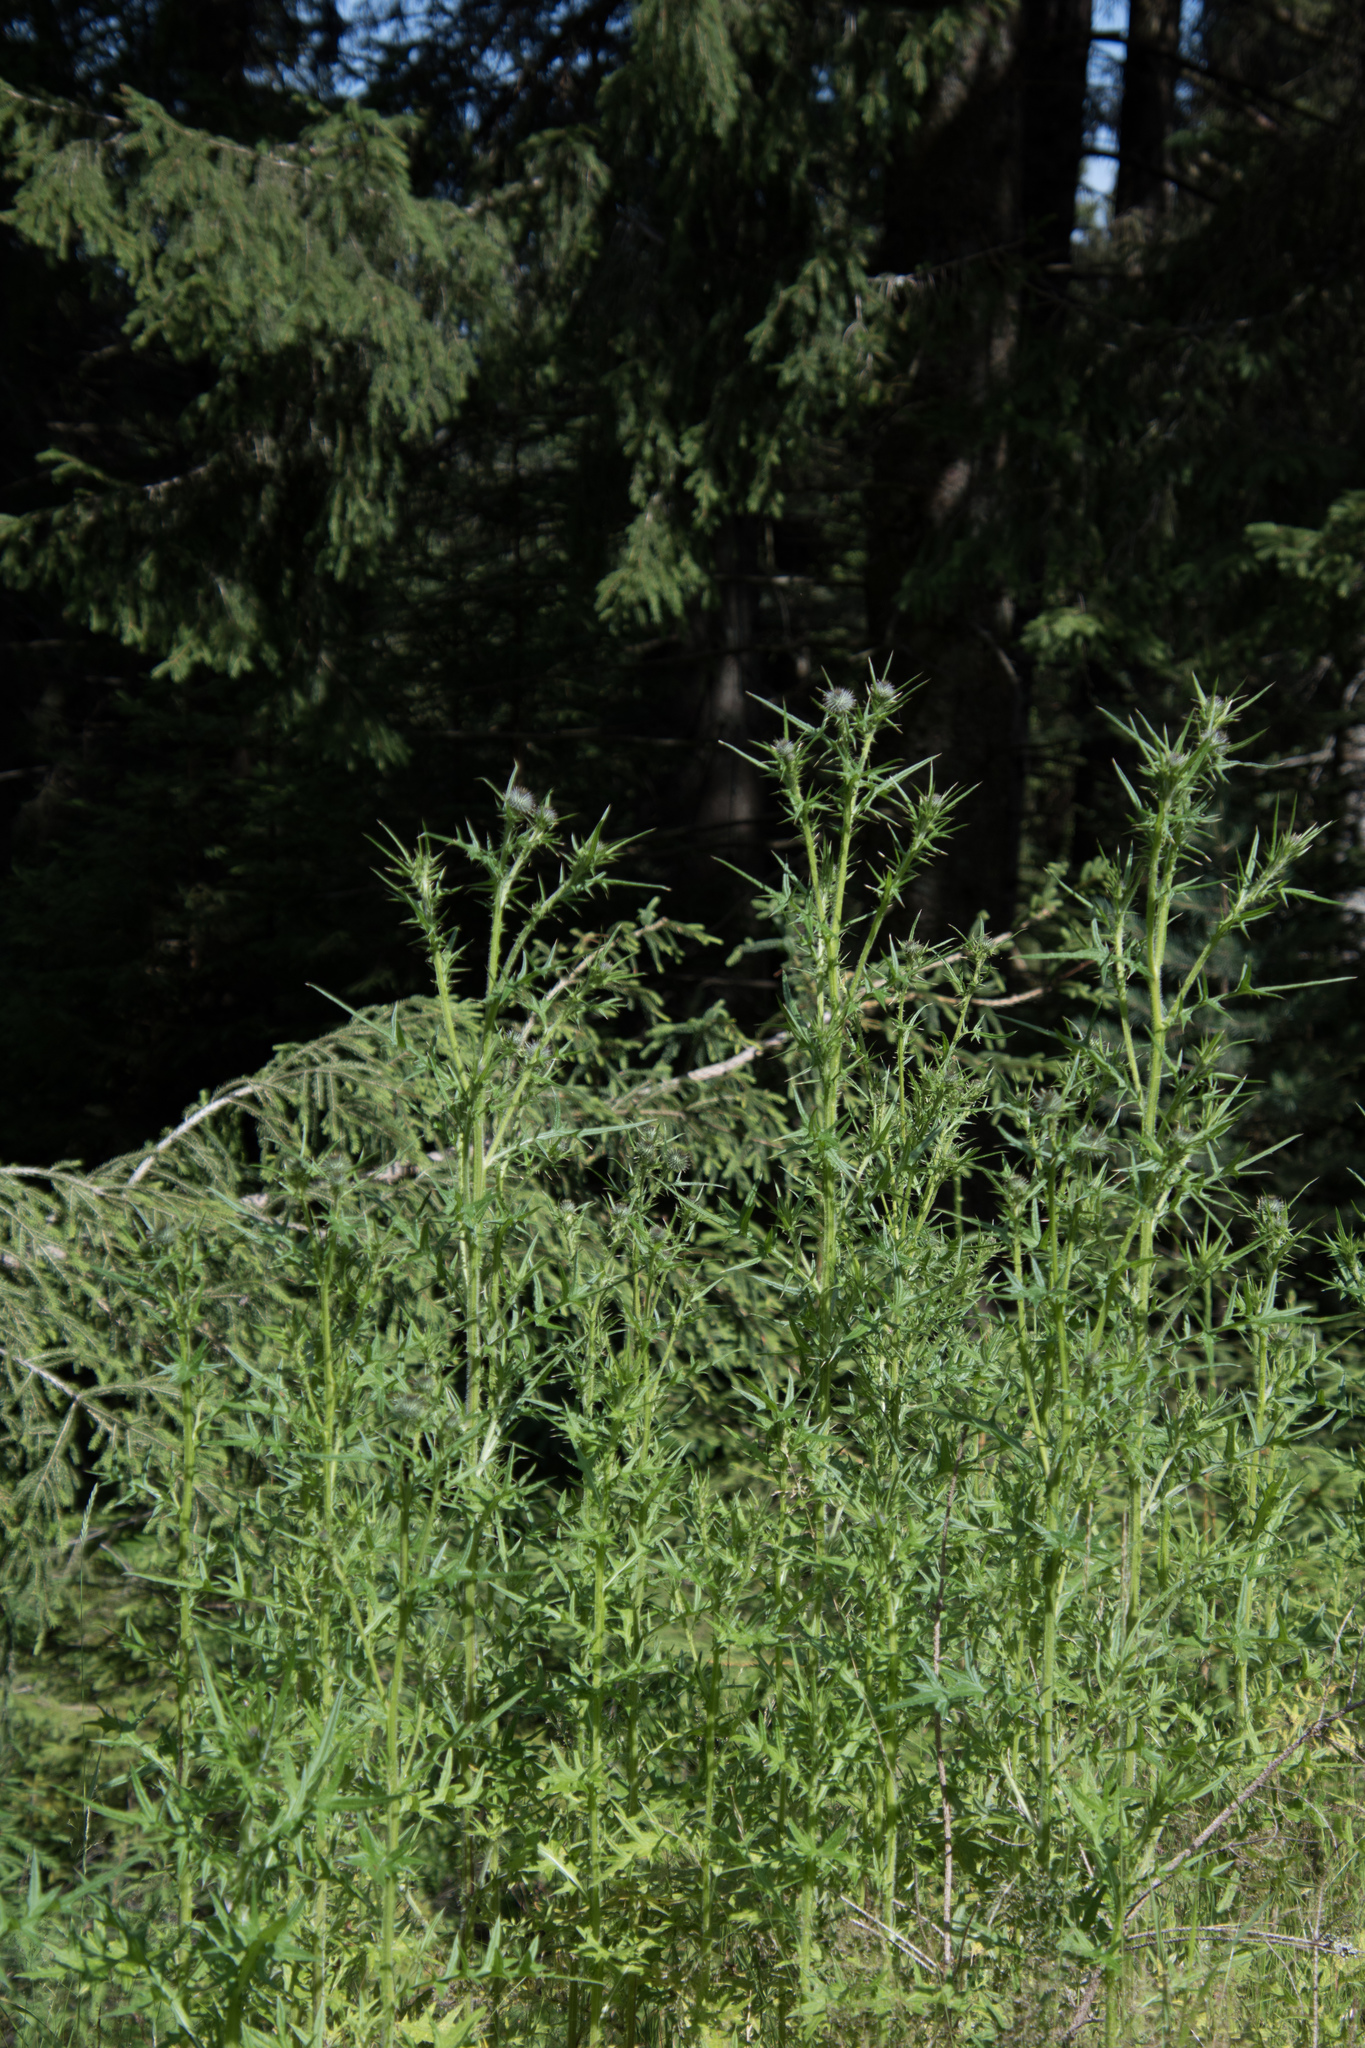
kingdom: Plantae
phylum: Tracheophyta
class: Magnoliopsida
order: Asterales
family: Asteraceae
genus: Cirsium
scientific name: Cirsium vulgare
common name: Bull thistle
